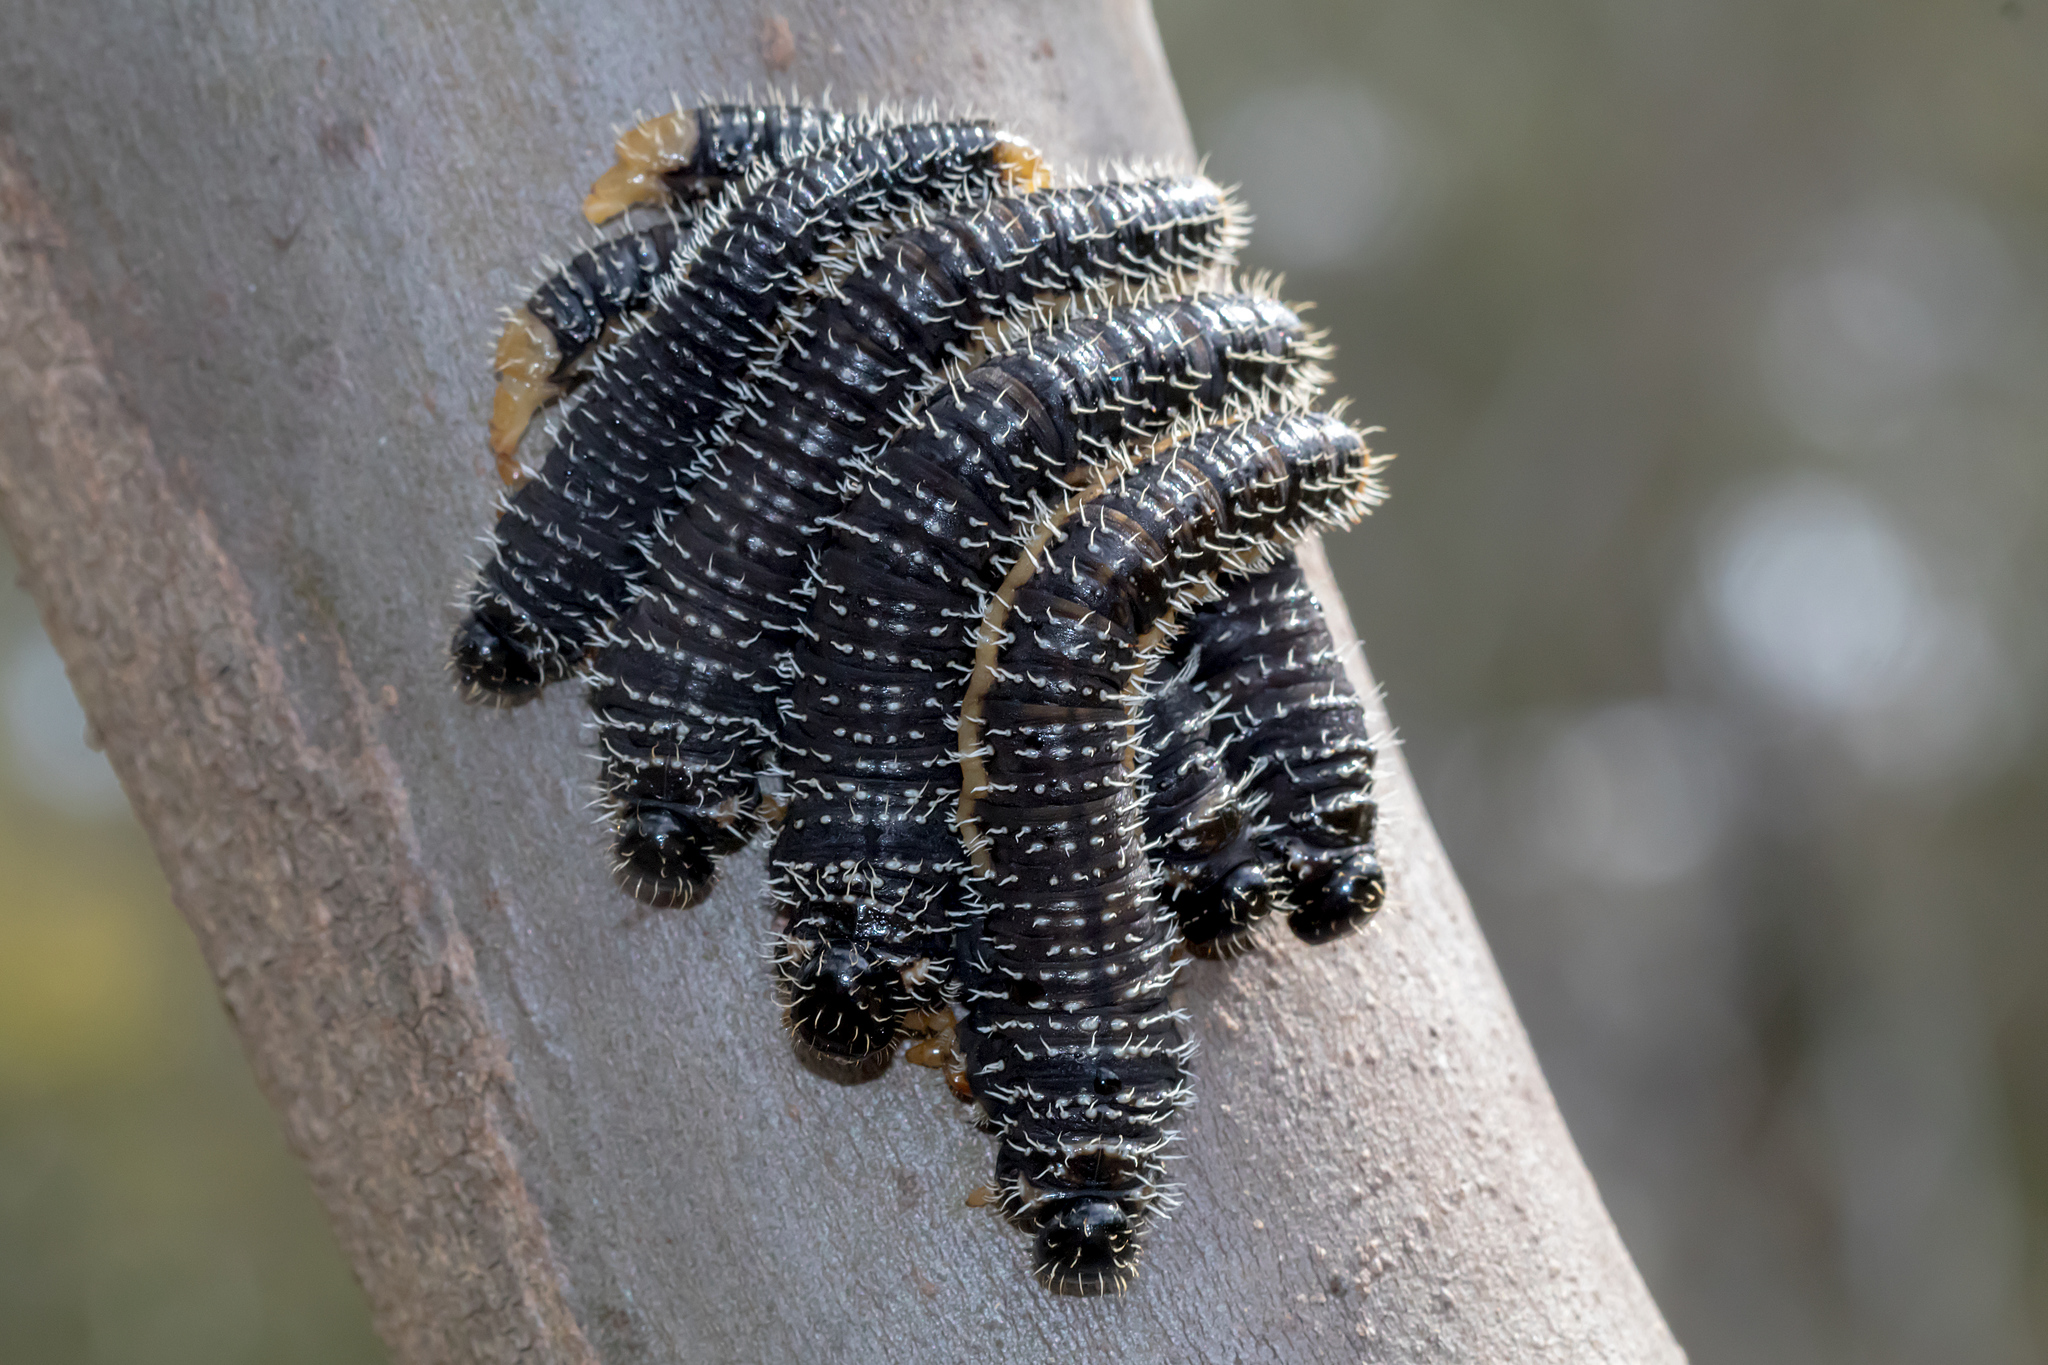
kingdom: Animalia
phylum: Arthropoda
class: Insecta
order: Hymenoptera
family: Pergidae
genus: Perga
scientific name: Perga affinis
